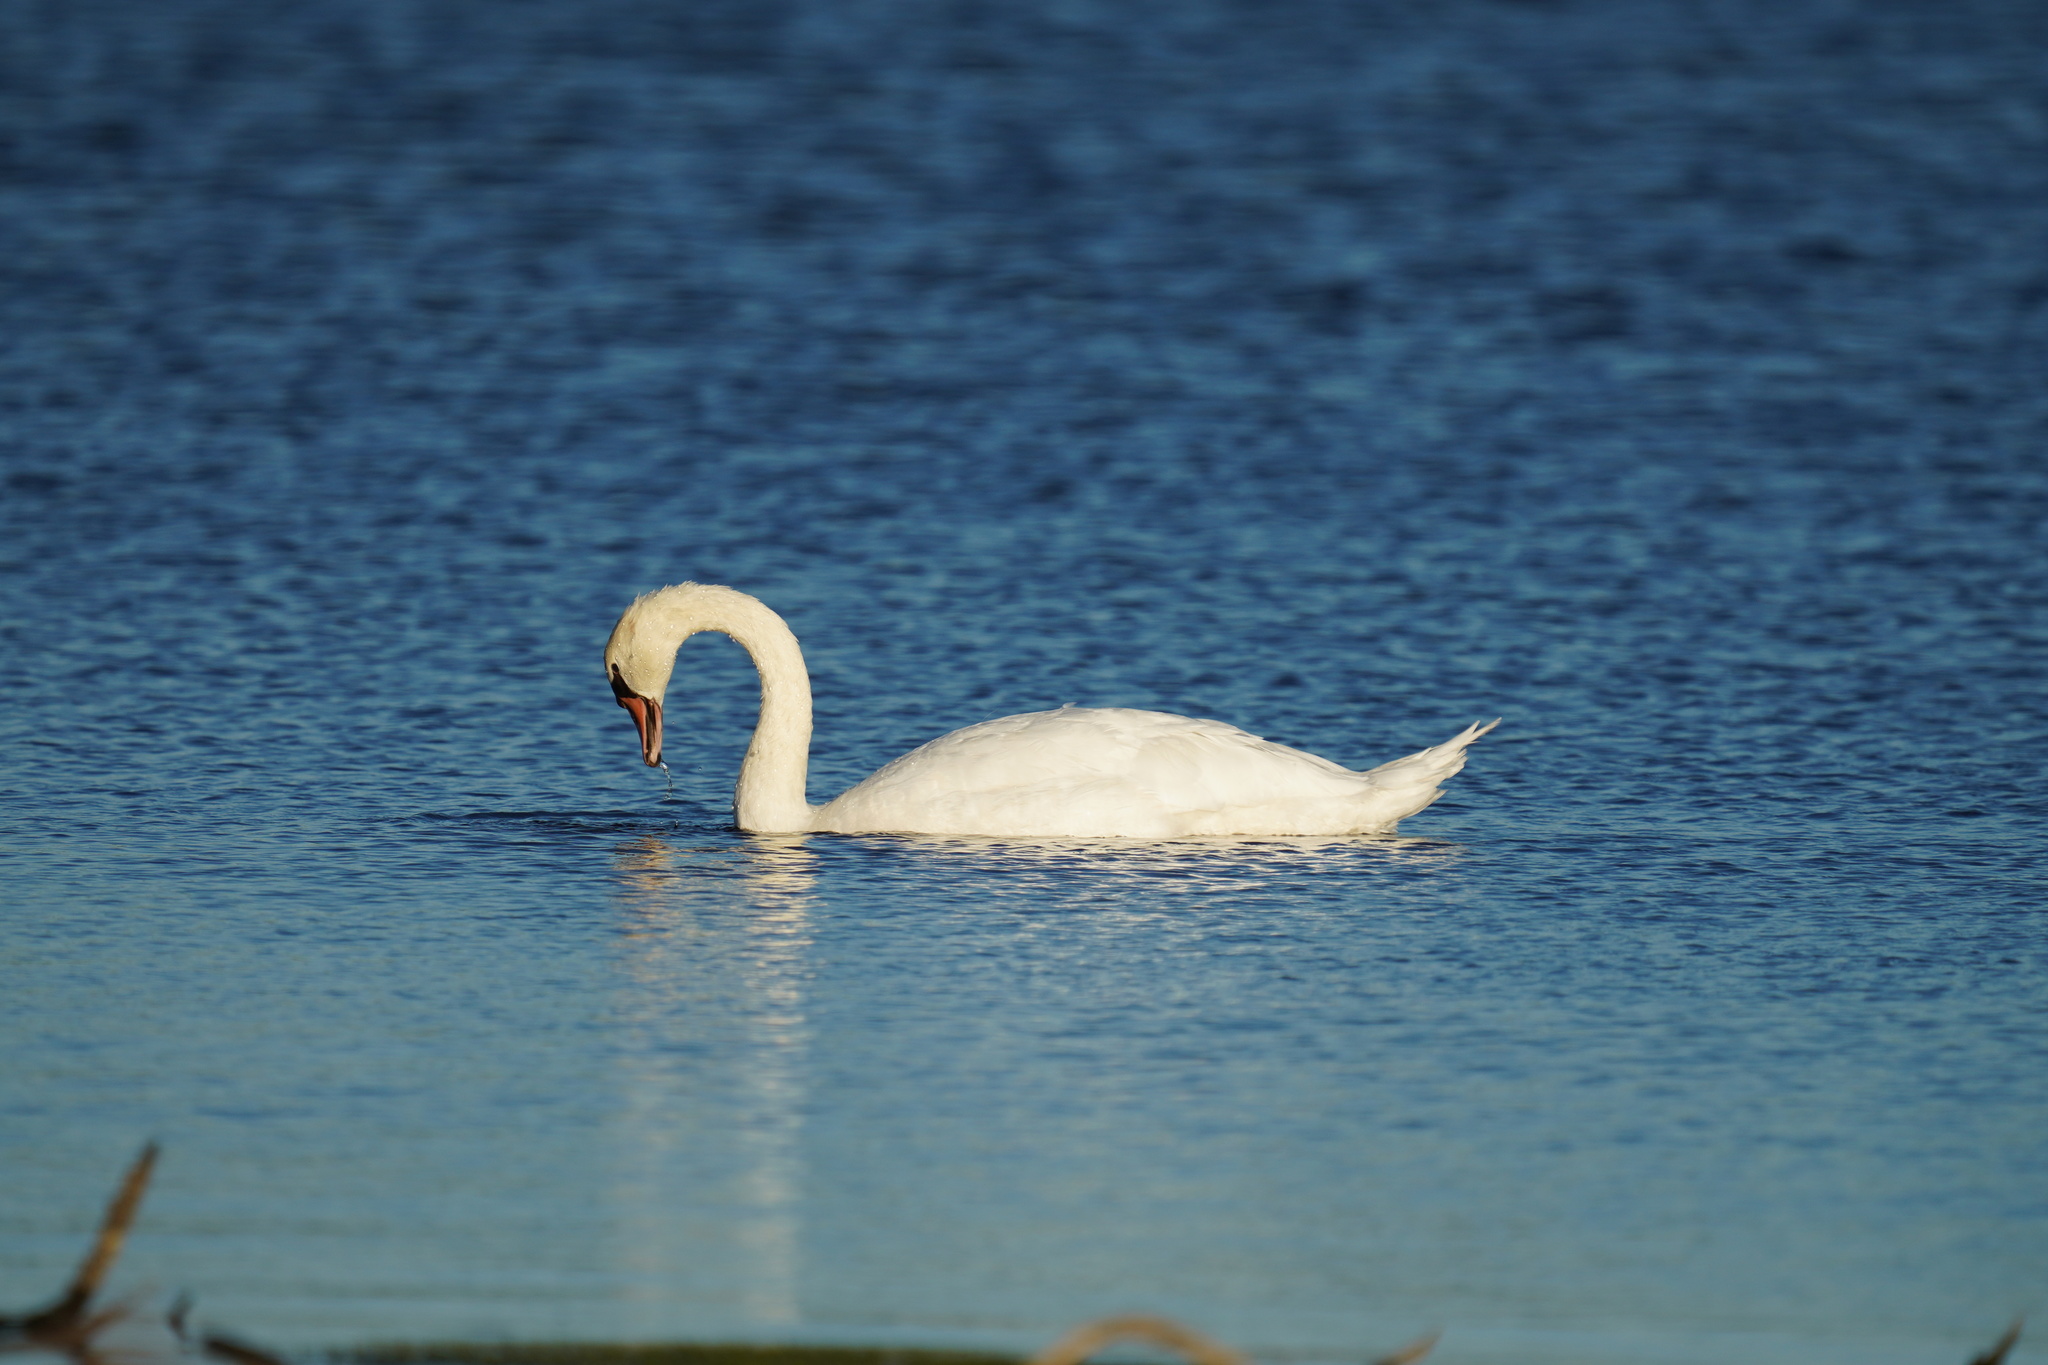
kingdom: Animalia
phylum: Chordata
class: Aves
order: Anseriformes
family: Anatidae
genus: Cygnus
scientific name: Cygnus olor
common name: Mute swan
